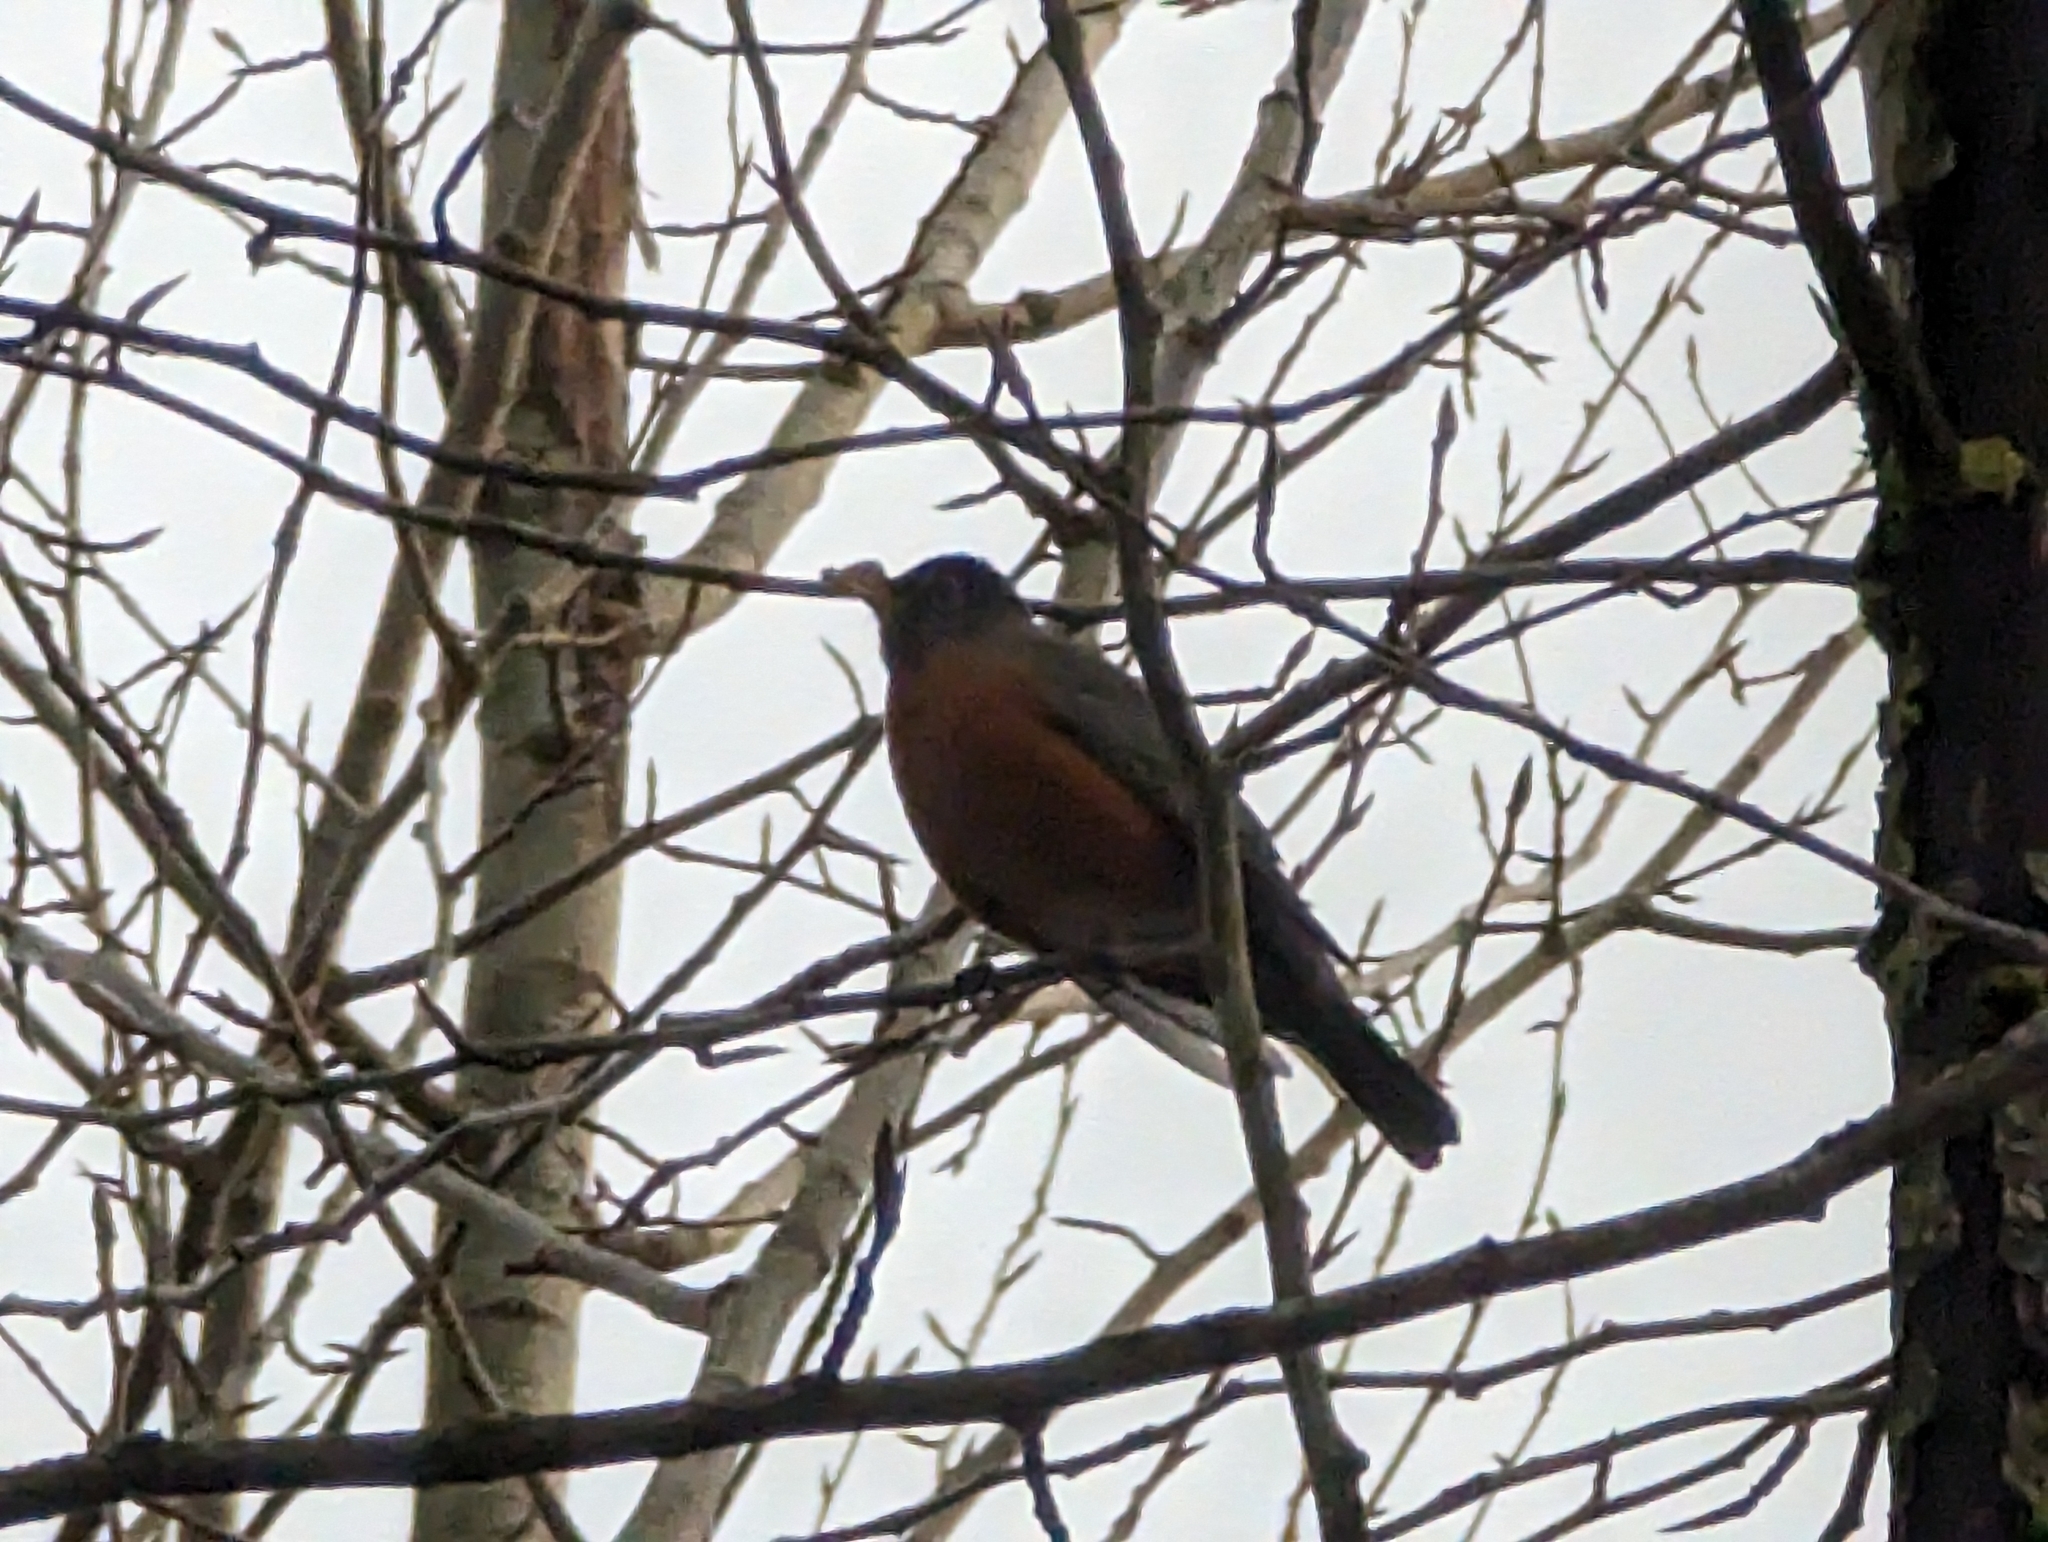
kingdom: Animalia
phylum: Chordata
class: Aves
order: Passeriformes
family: Turdidae
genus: Turdus
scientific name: Turdus migratorius
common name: American robin
